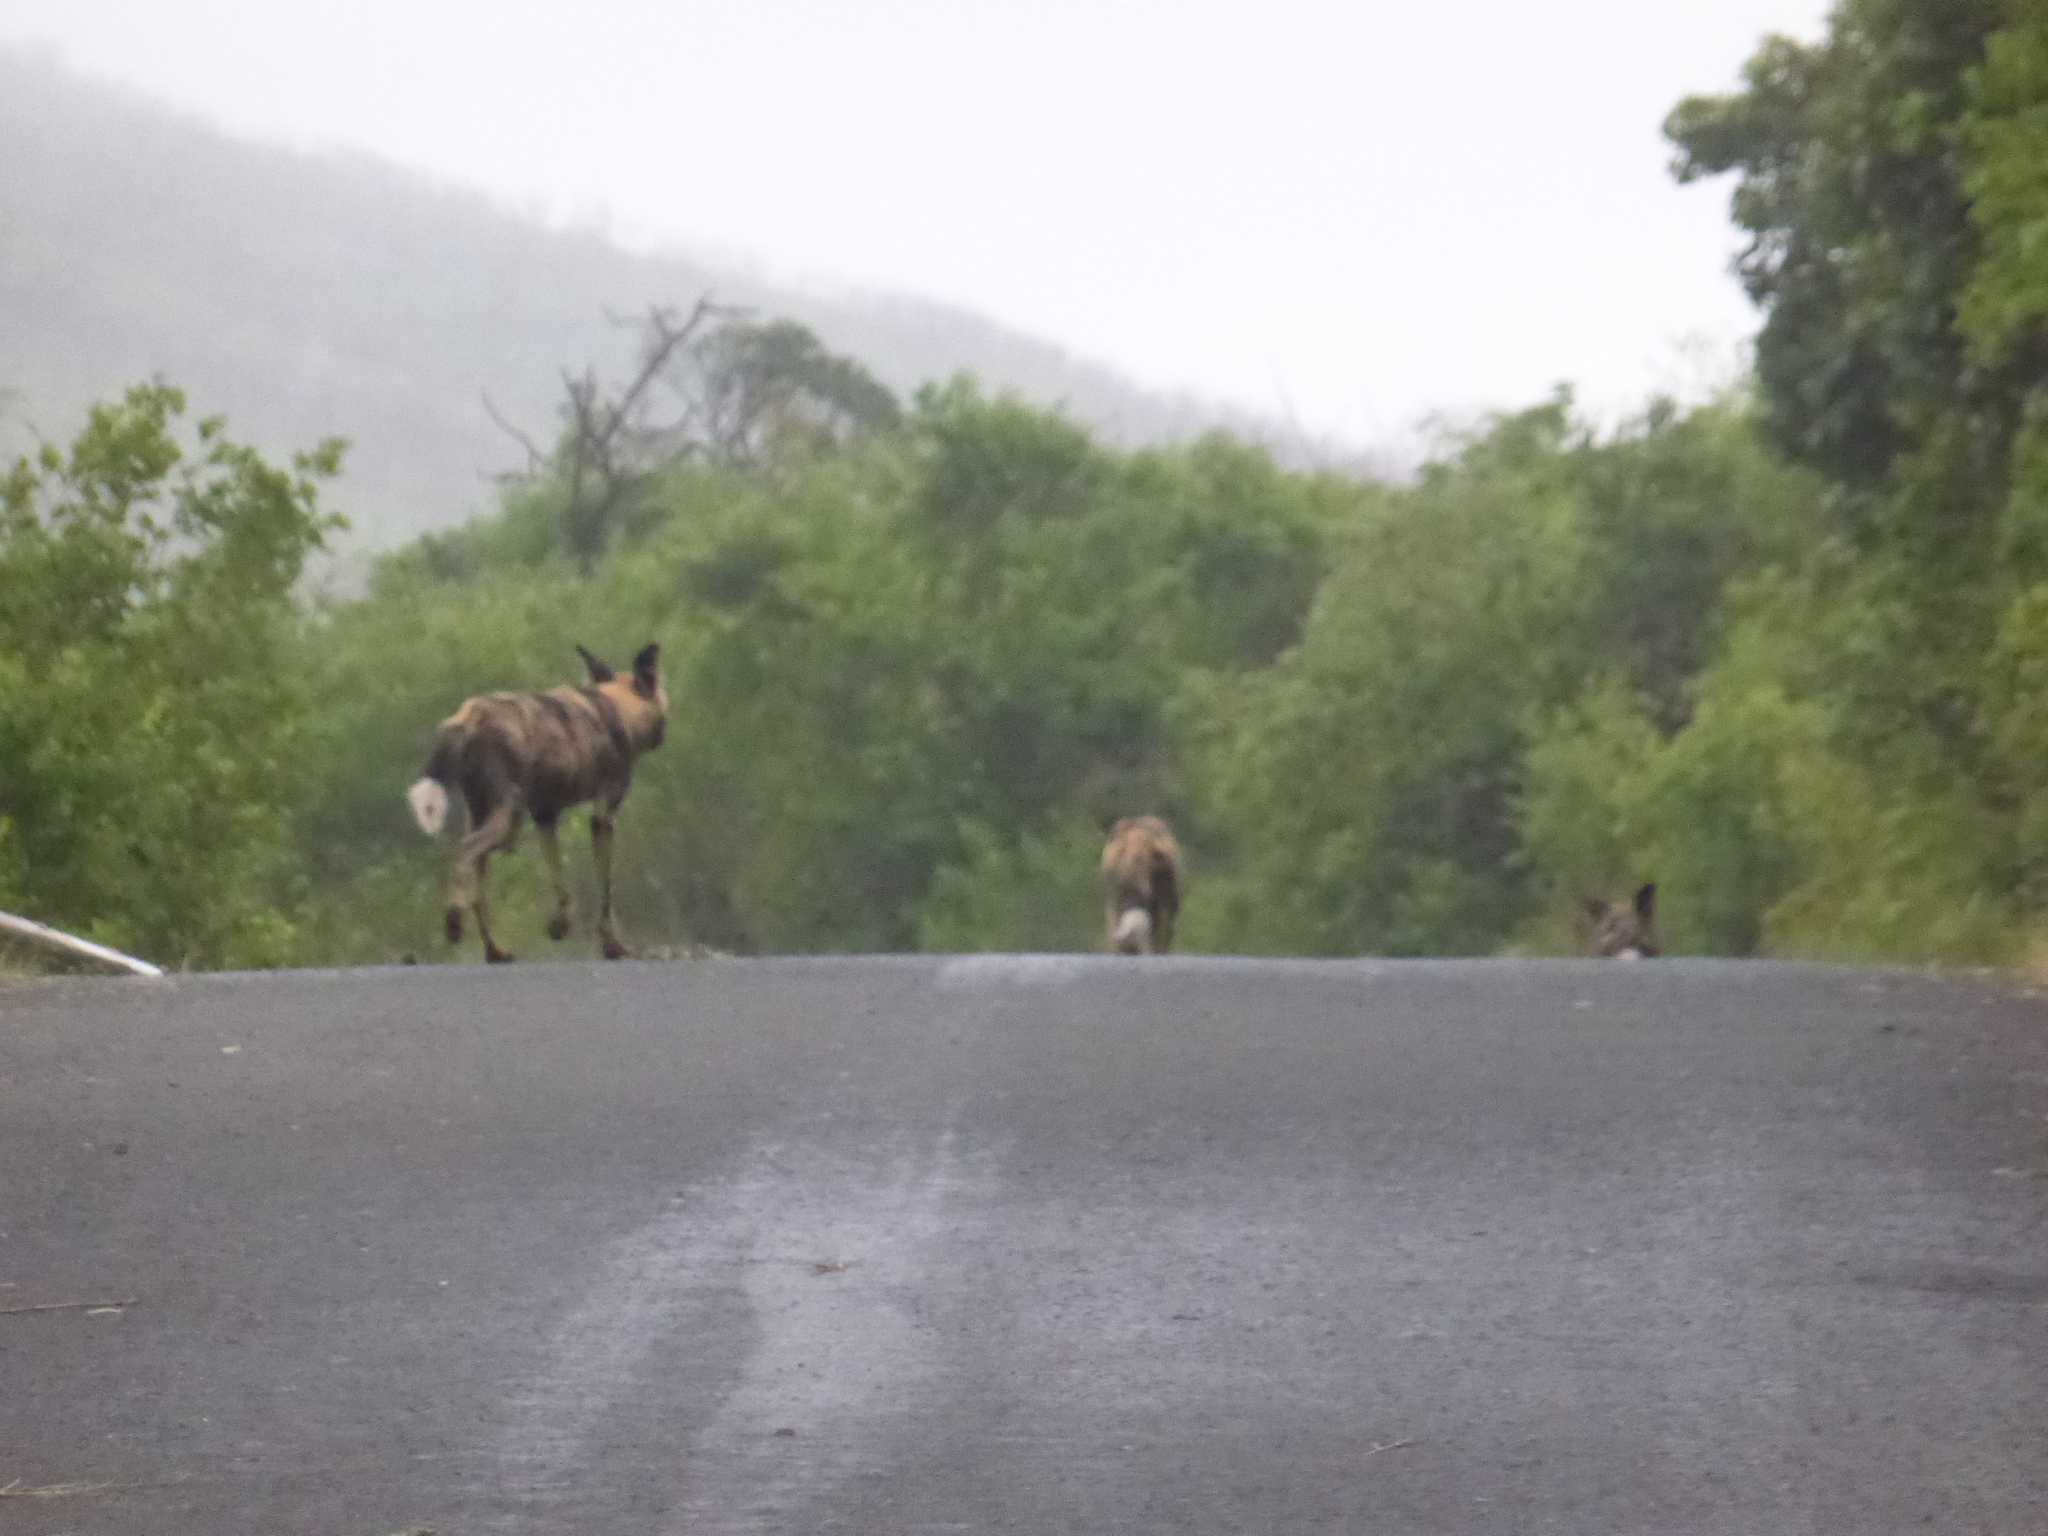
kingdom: Animalia
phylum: Chordata
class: Mammalia
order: Carnivora
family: Canidae
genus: Lycaon
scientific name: Lycaon pictus
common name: African wild dog
